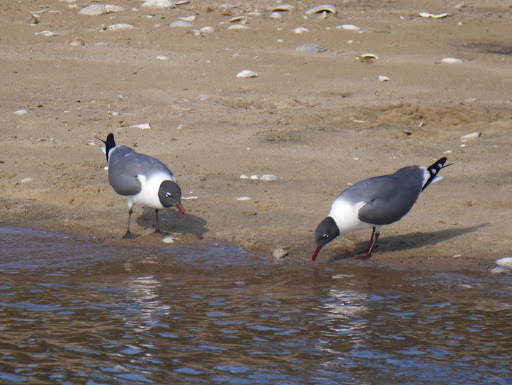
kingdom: Animalia
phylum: Chordata
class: Aves
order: Charadriiformes
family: Laridae
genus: Leucophaeus
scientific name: Leucophaeus atricilla
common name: Laughing gull
